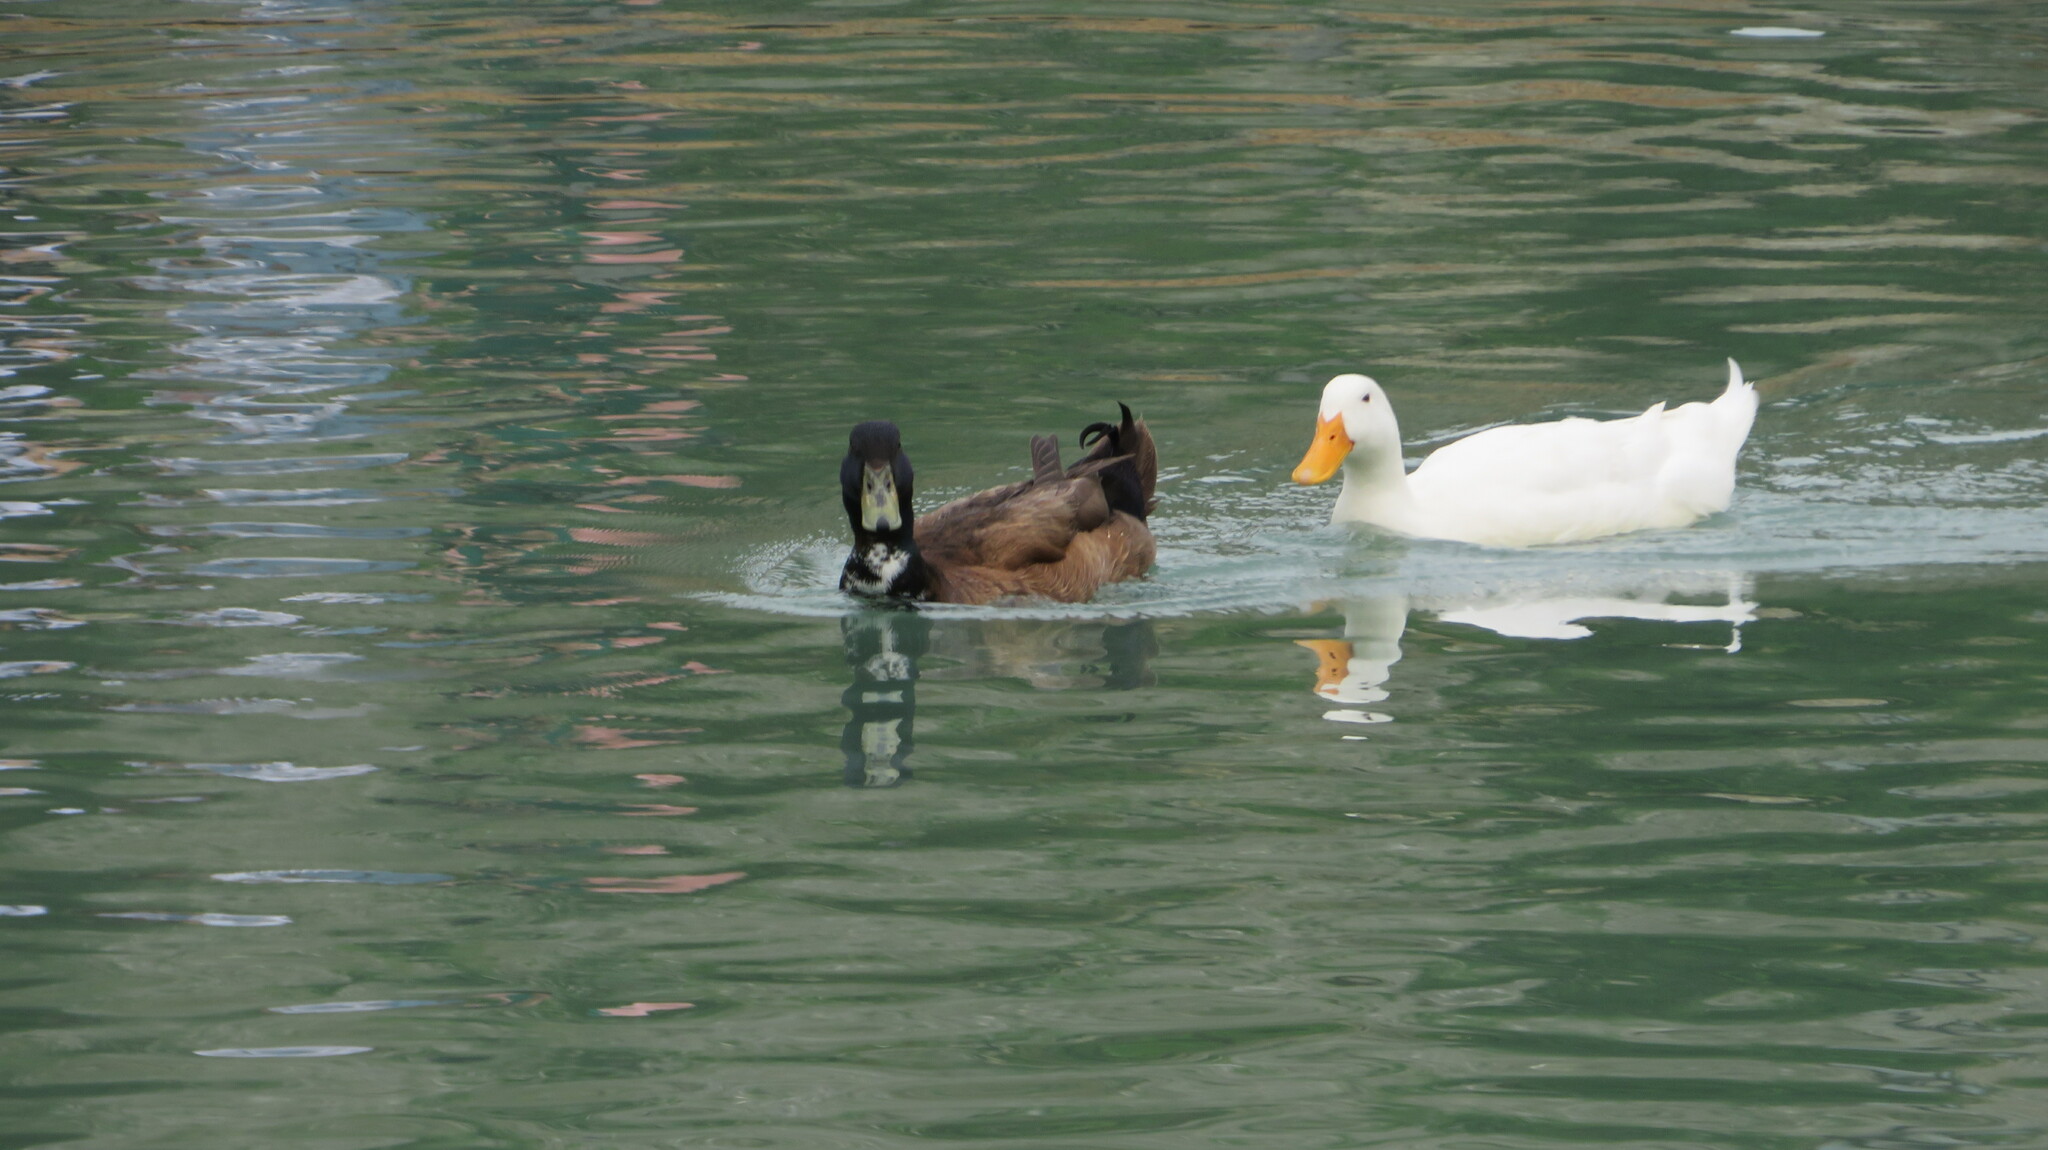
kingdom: Animalia
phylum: Chordata
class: Aves
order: Anseriformes
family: Anatidae
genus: Anas
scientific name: Anas platyrhynchos
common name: Mallard
